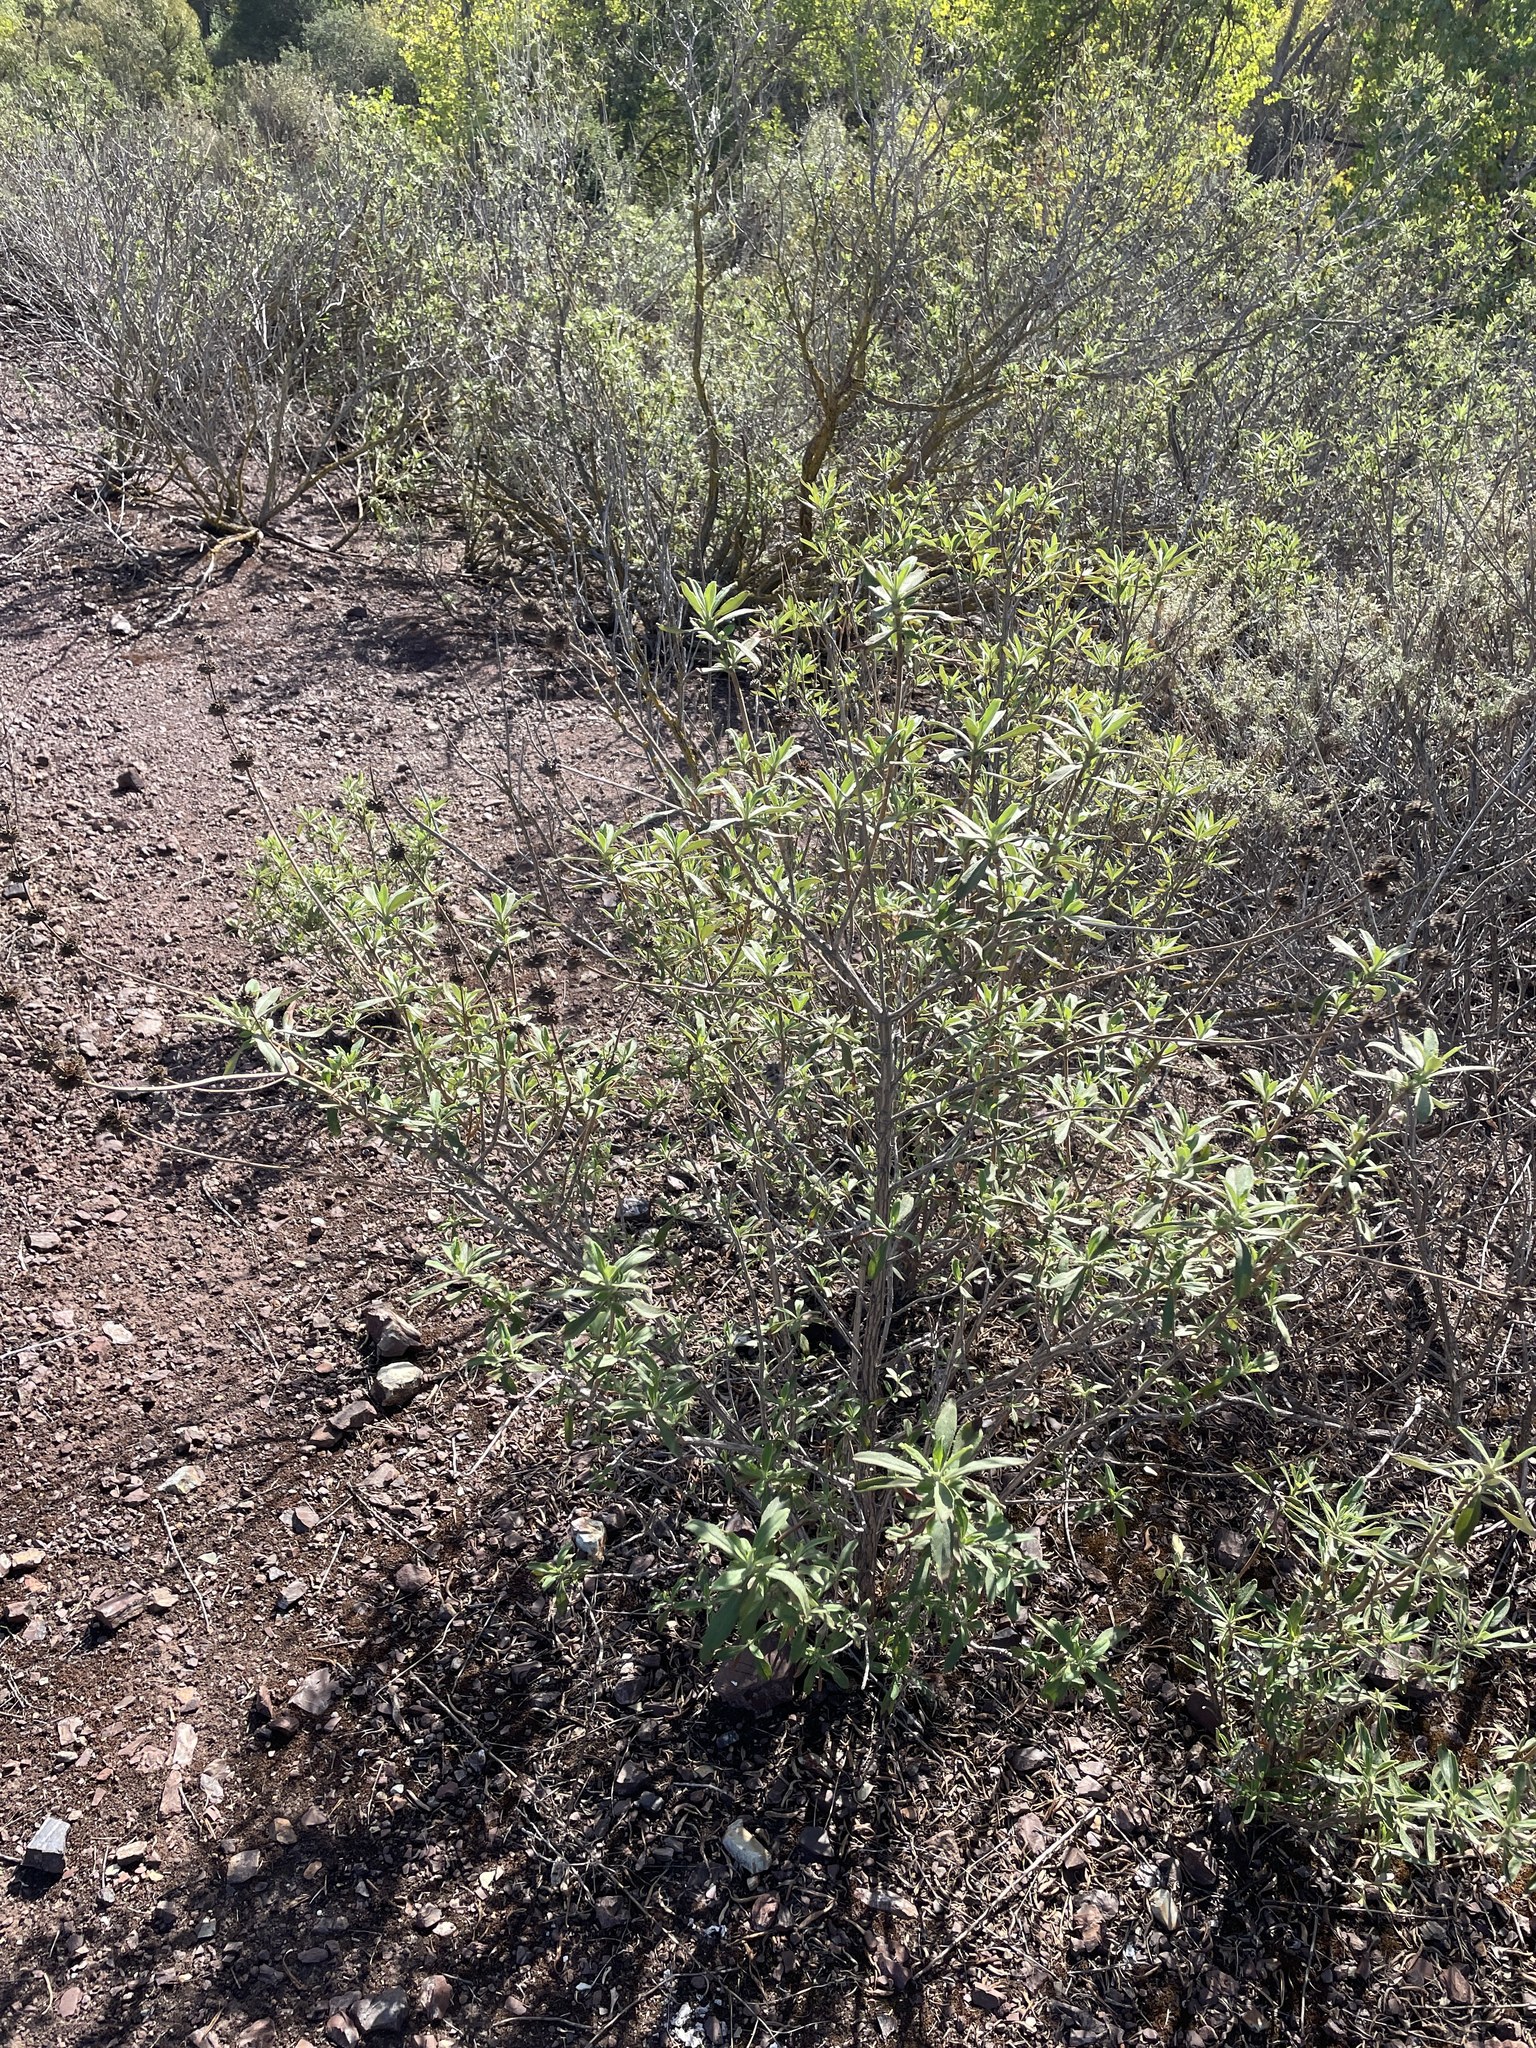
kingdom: Plantae
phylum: Tracheophyta
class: Magnoliopsida
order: Lamiales
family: Lamiaceae
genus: Salvia
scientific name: Salvia mellifera
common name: Black sage
